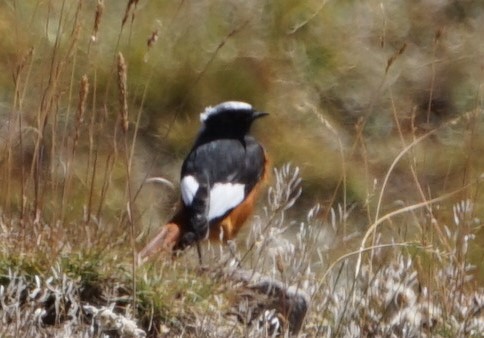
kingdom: Animalia
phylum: Chordata
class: Aves
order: Passeriformes
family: Muscicapidae
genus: Phoenicurus
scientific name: Phoenicurus erythrogastrus
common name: Güldenstädt's redstart
